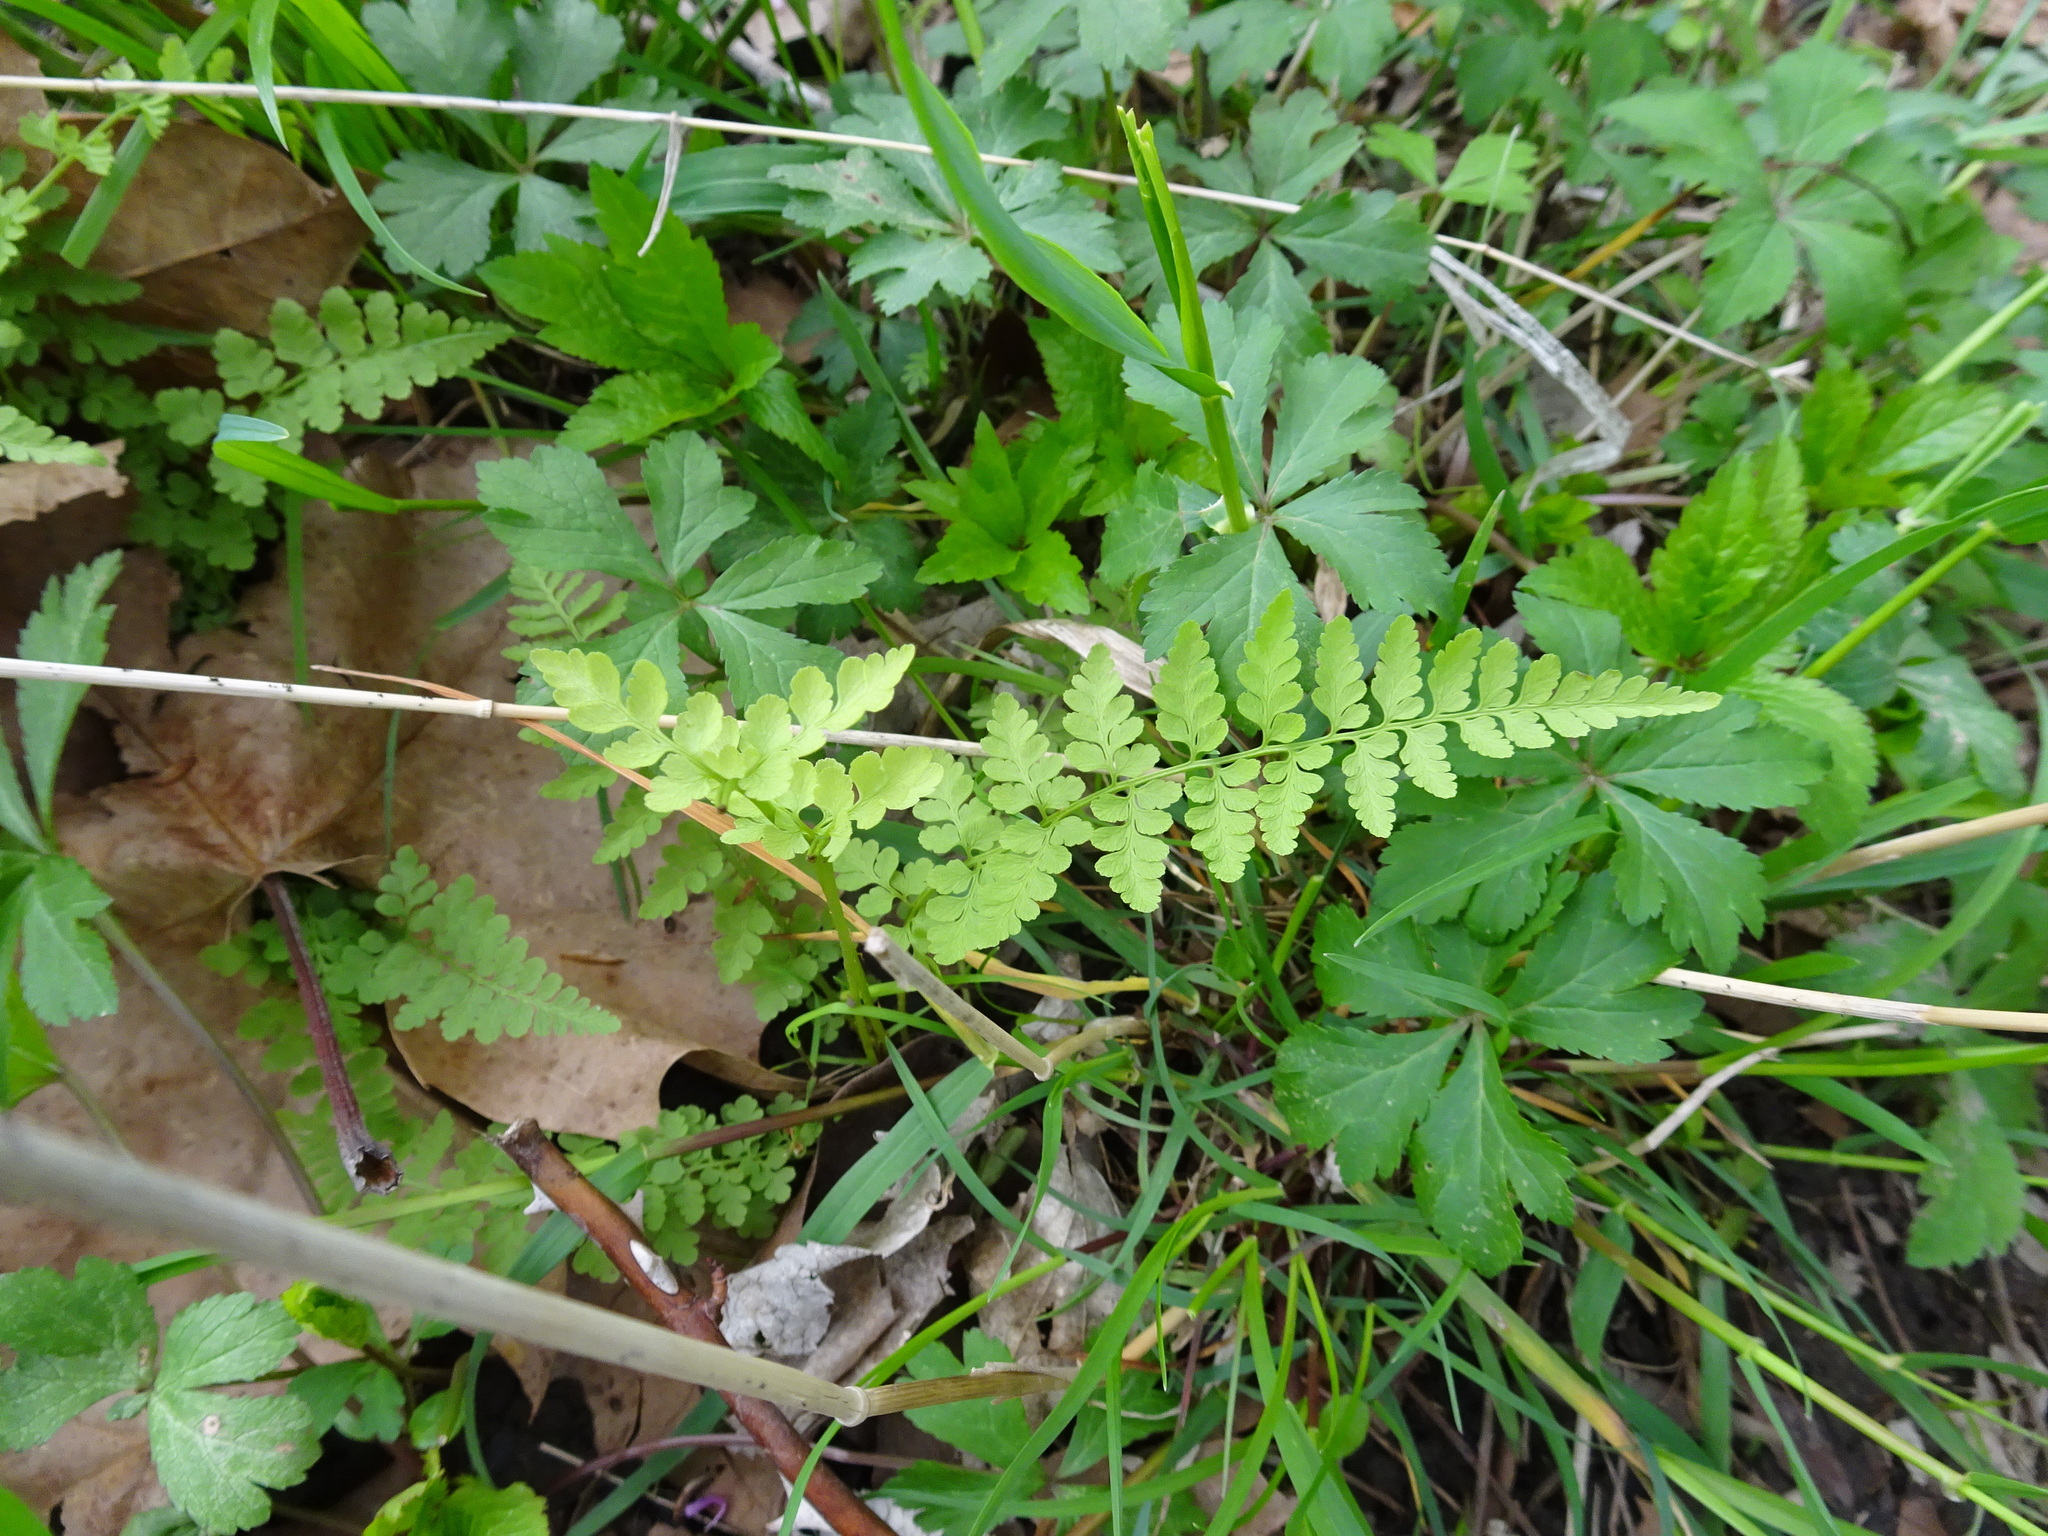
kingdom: Plantae
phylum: Tracheophyta
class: Polypodiopsida
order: Polypodiales
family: Cystopteridaceae
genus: Cystopteris
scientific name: Cystopteris protrusa
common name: Lowland brittle fern
